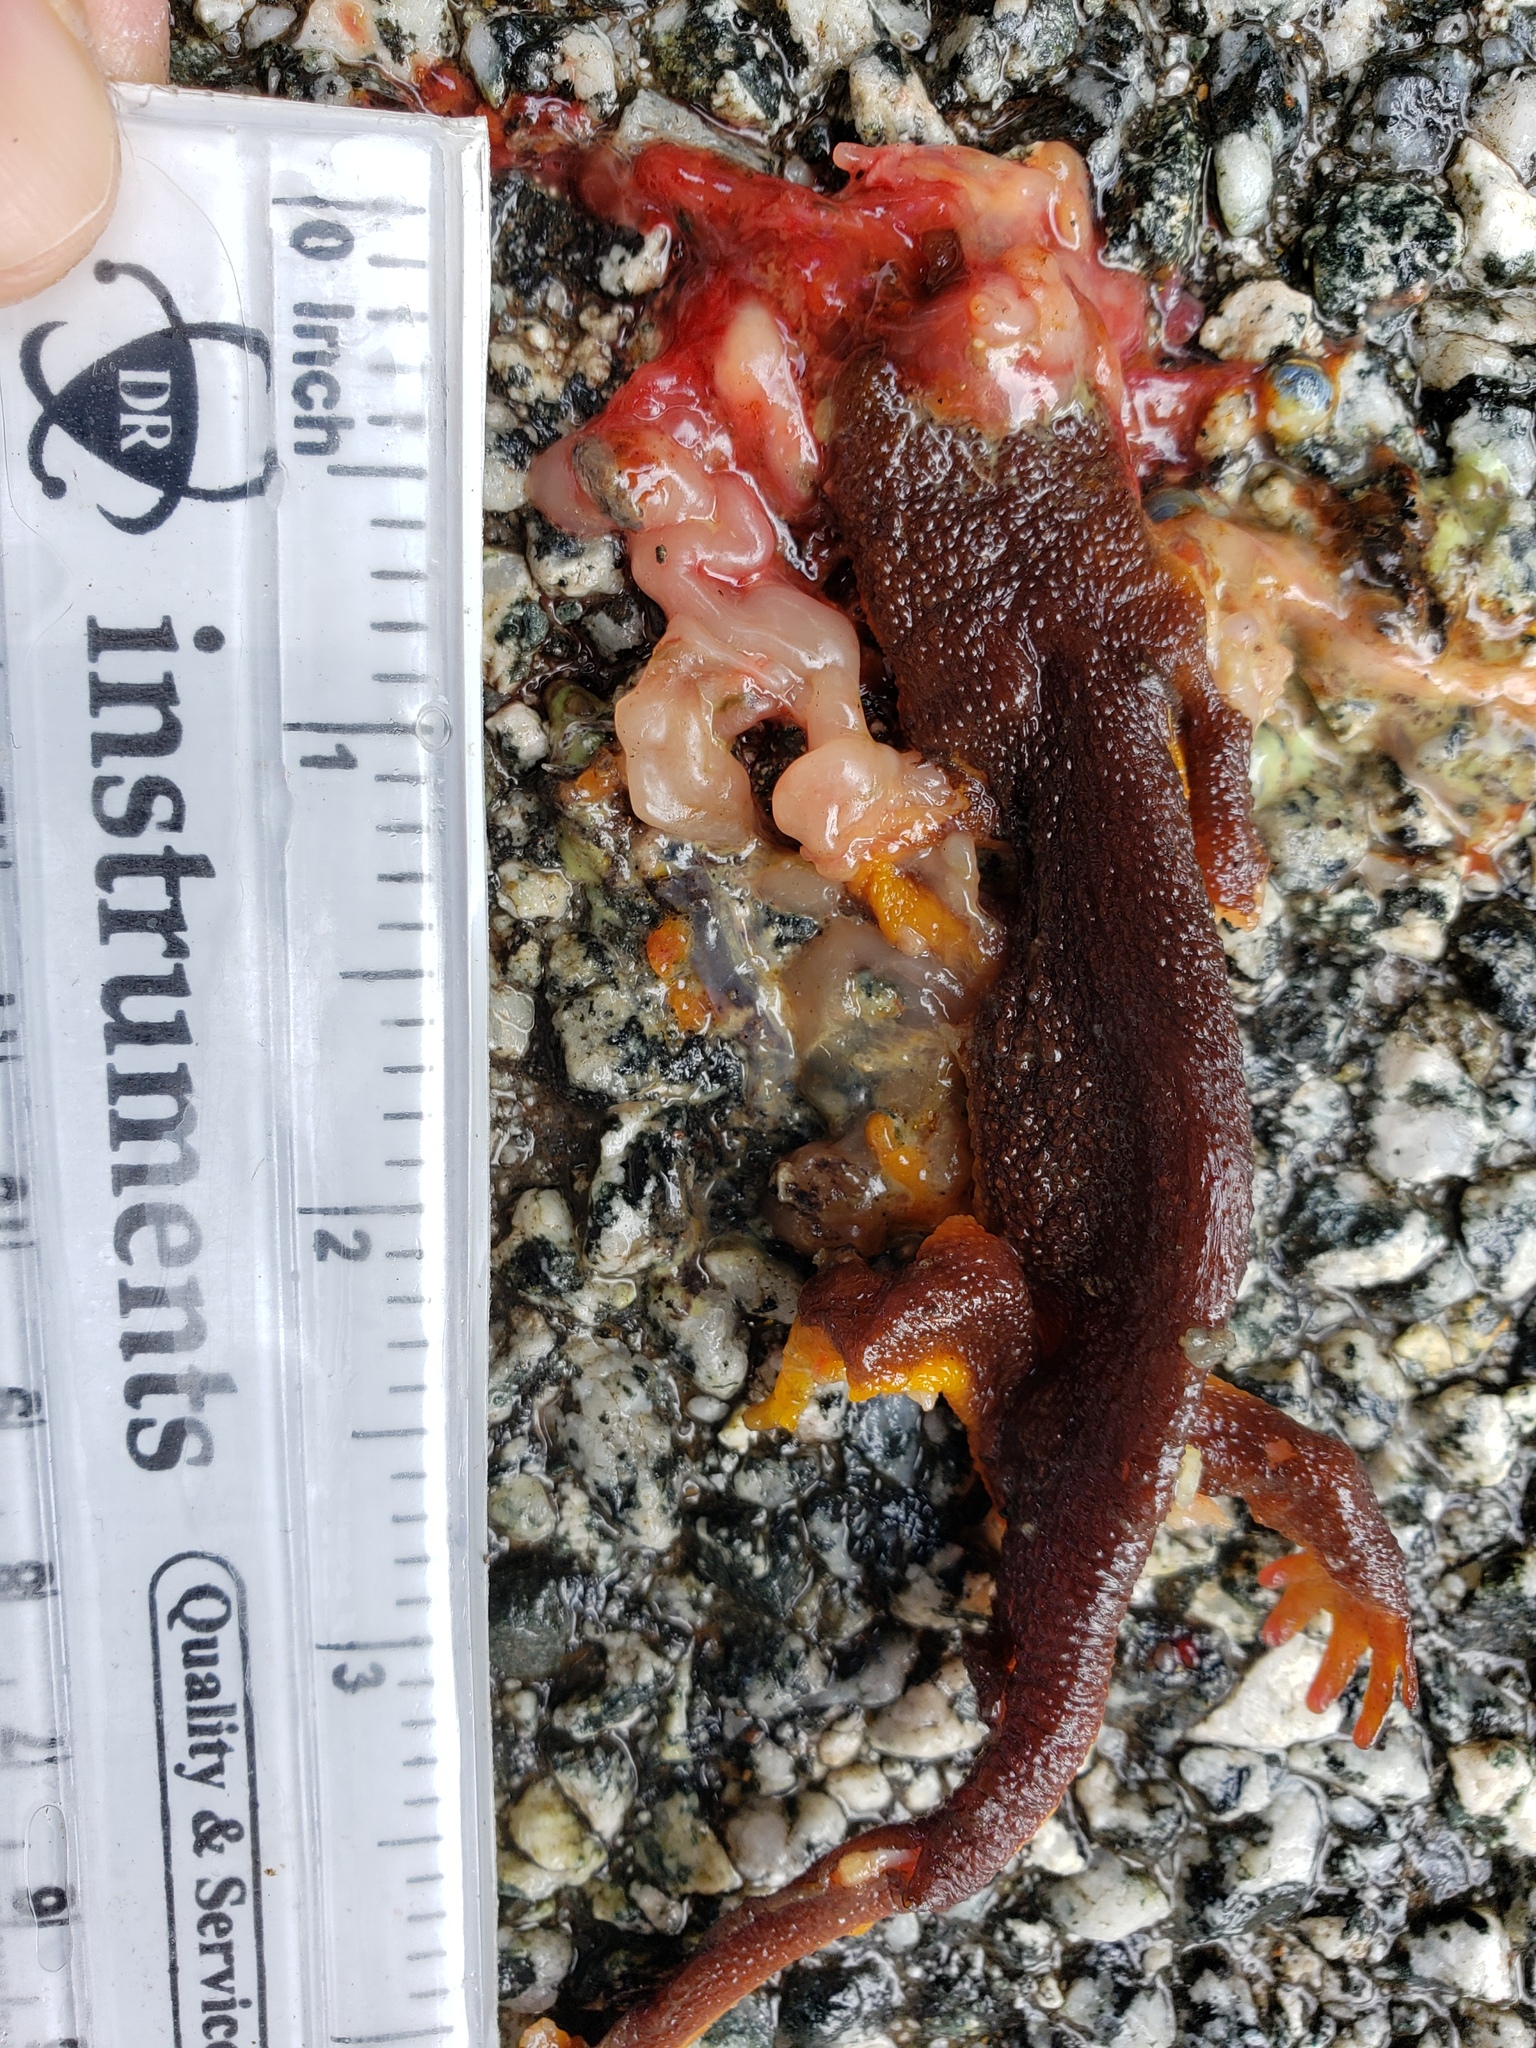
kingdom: Animalia
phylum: Chordata
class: Amphibia
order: Caudata
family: Salamandridae
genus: Taricha
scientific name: Taricha
